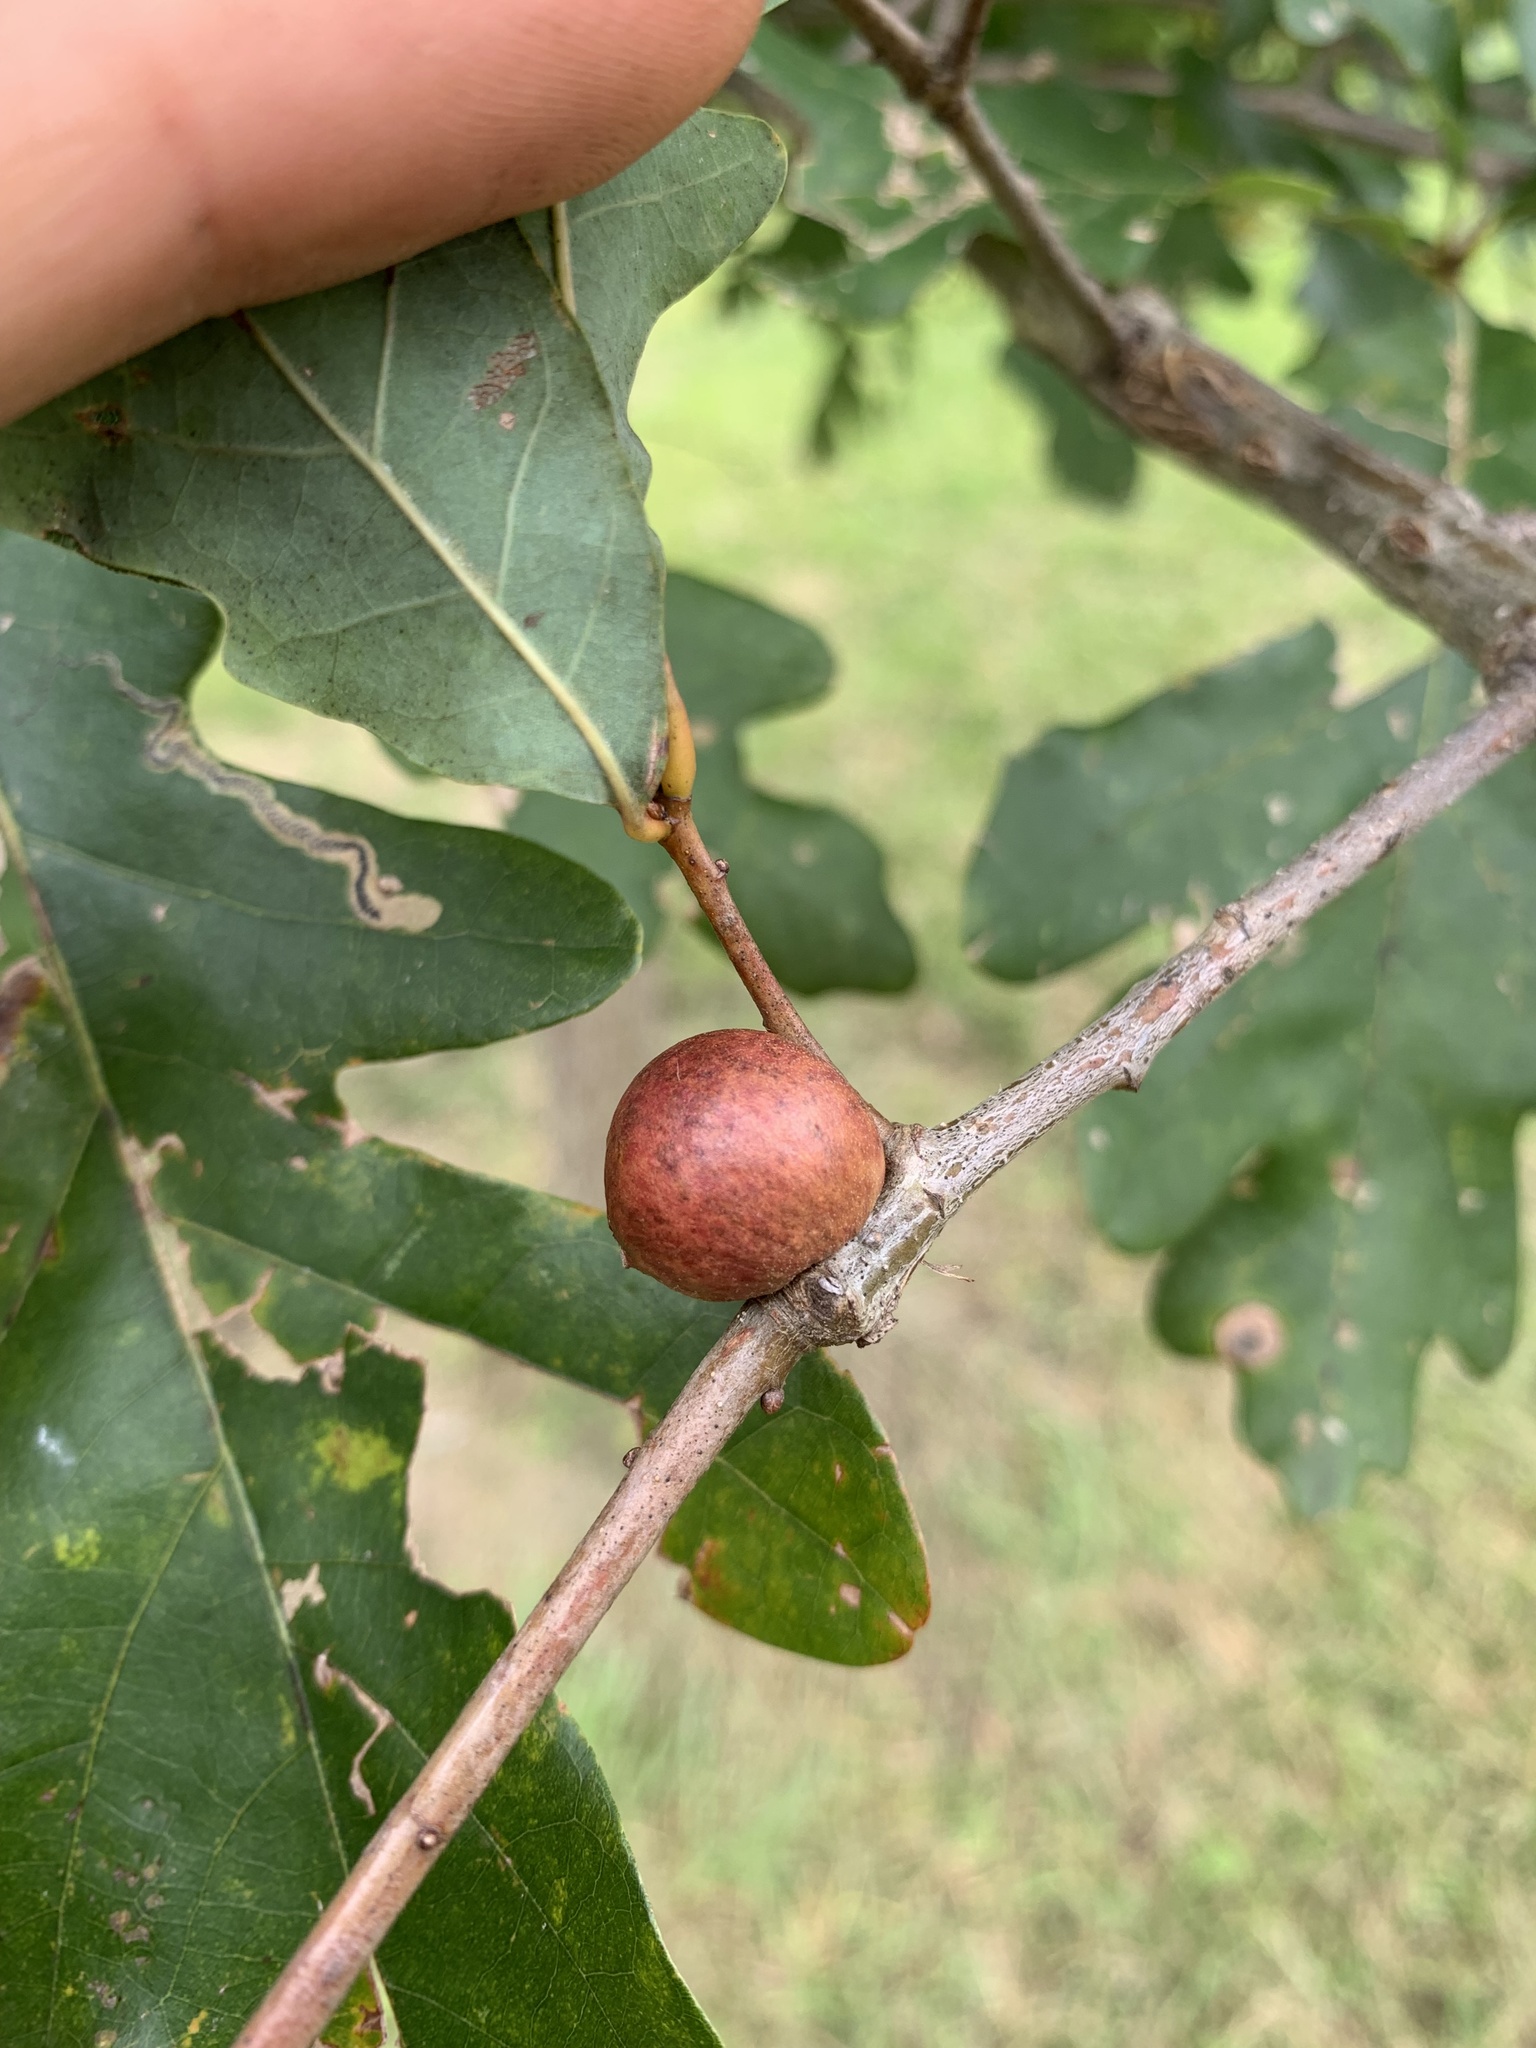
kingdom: Animalia
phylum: Arthropoda
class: Insecta
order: Hymenoptera
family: Cynipidae
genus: Disholcaspis
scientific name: Disholcaspis quercusglobulus
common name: Round bullet gall wasp
